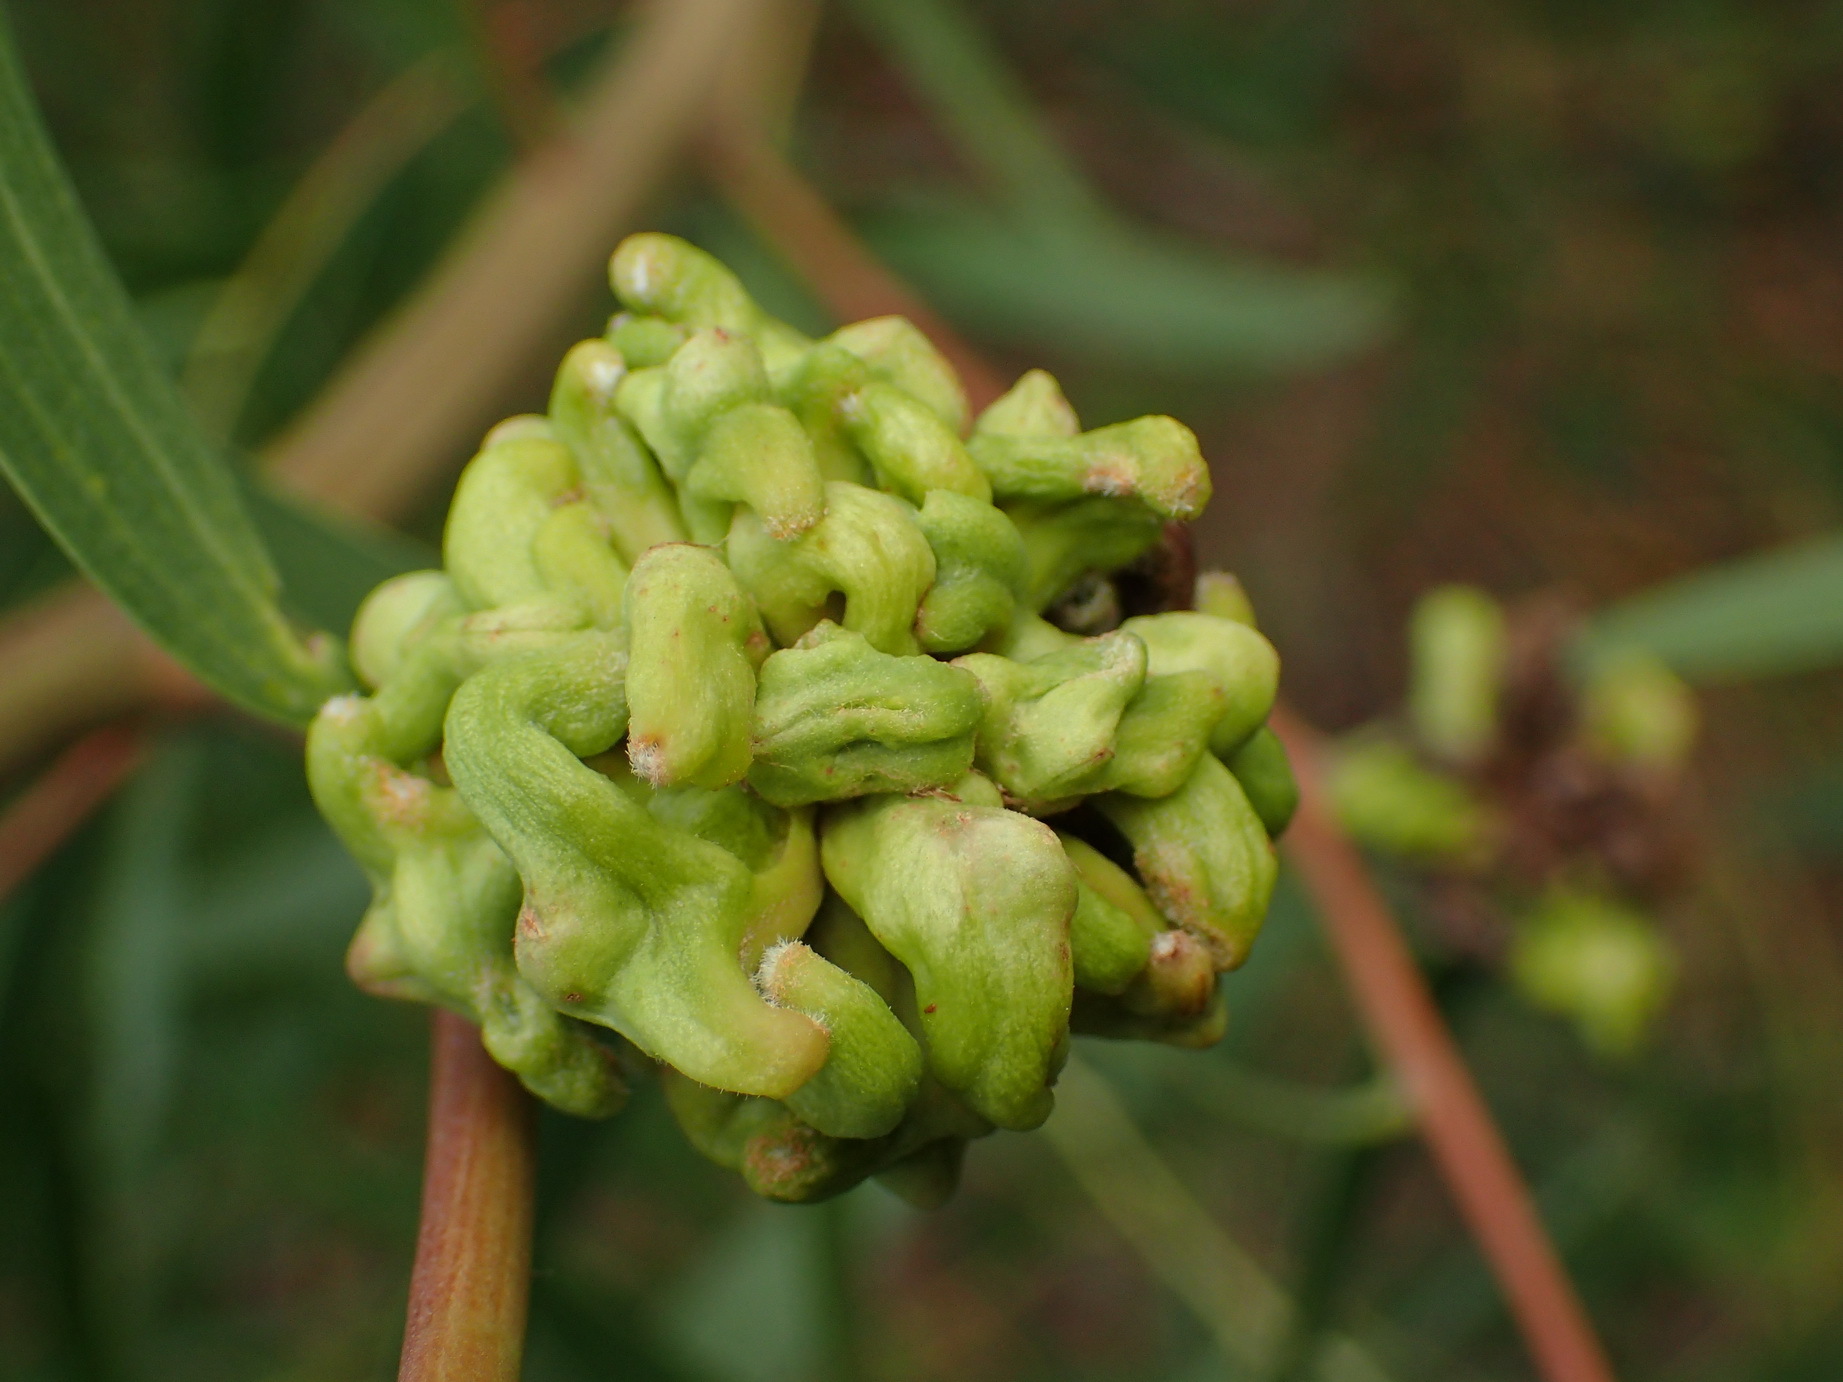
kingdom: Animalia
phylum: Arthropoda
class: Insecta
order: Diptera
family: Cecidomyiidae
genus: Dasineura
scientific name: Dasineura dielsi
